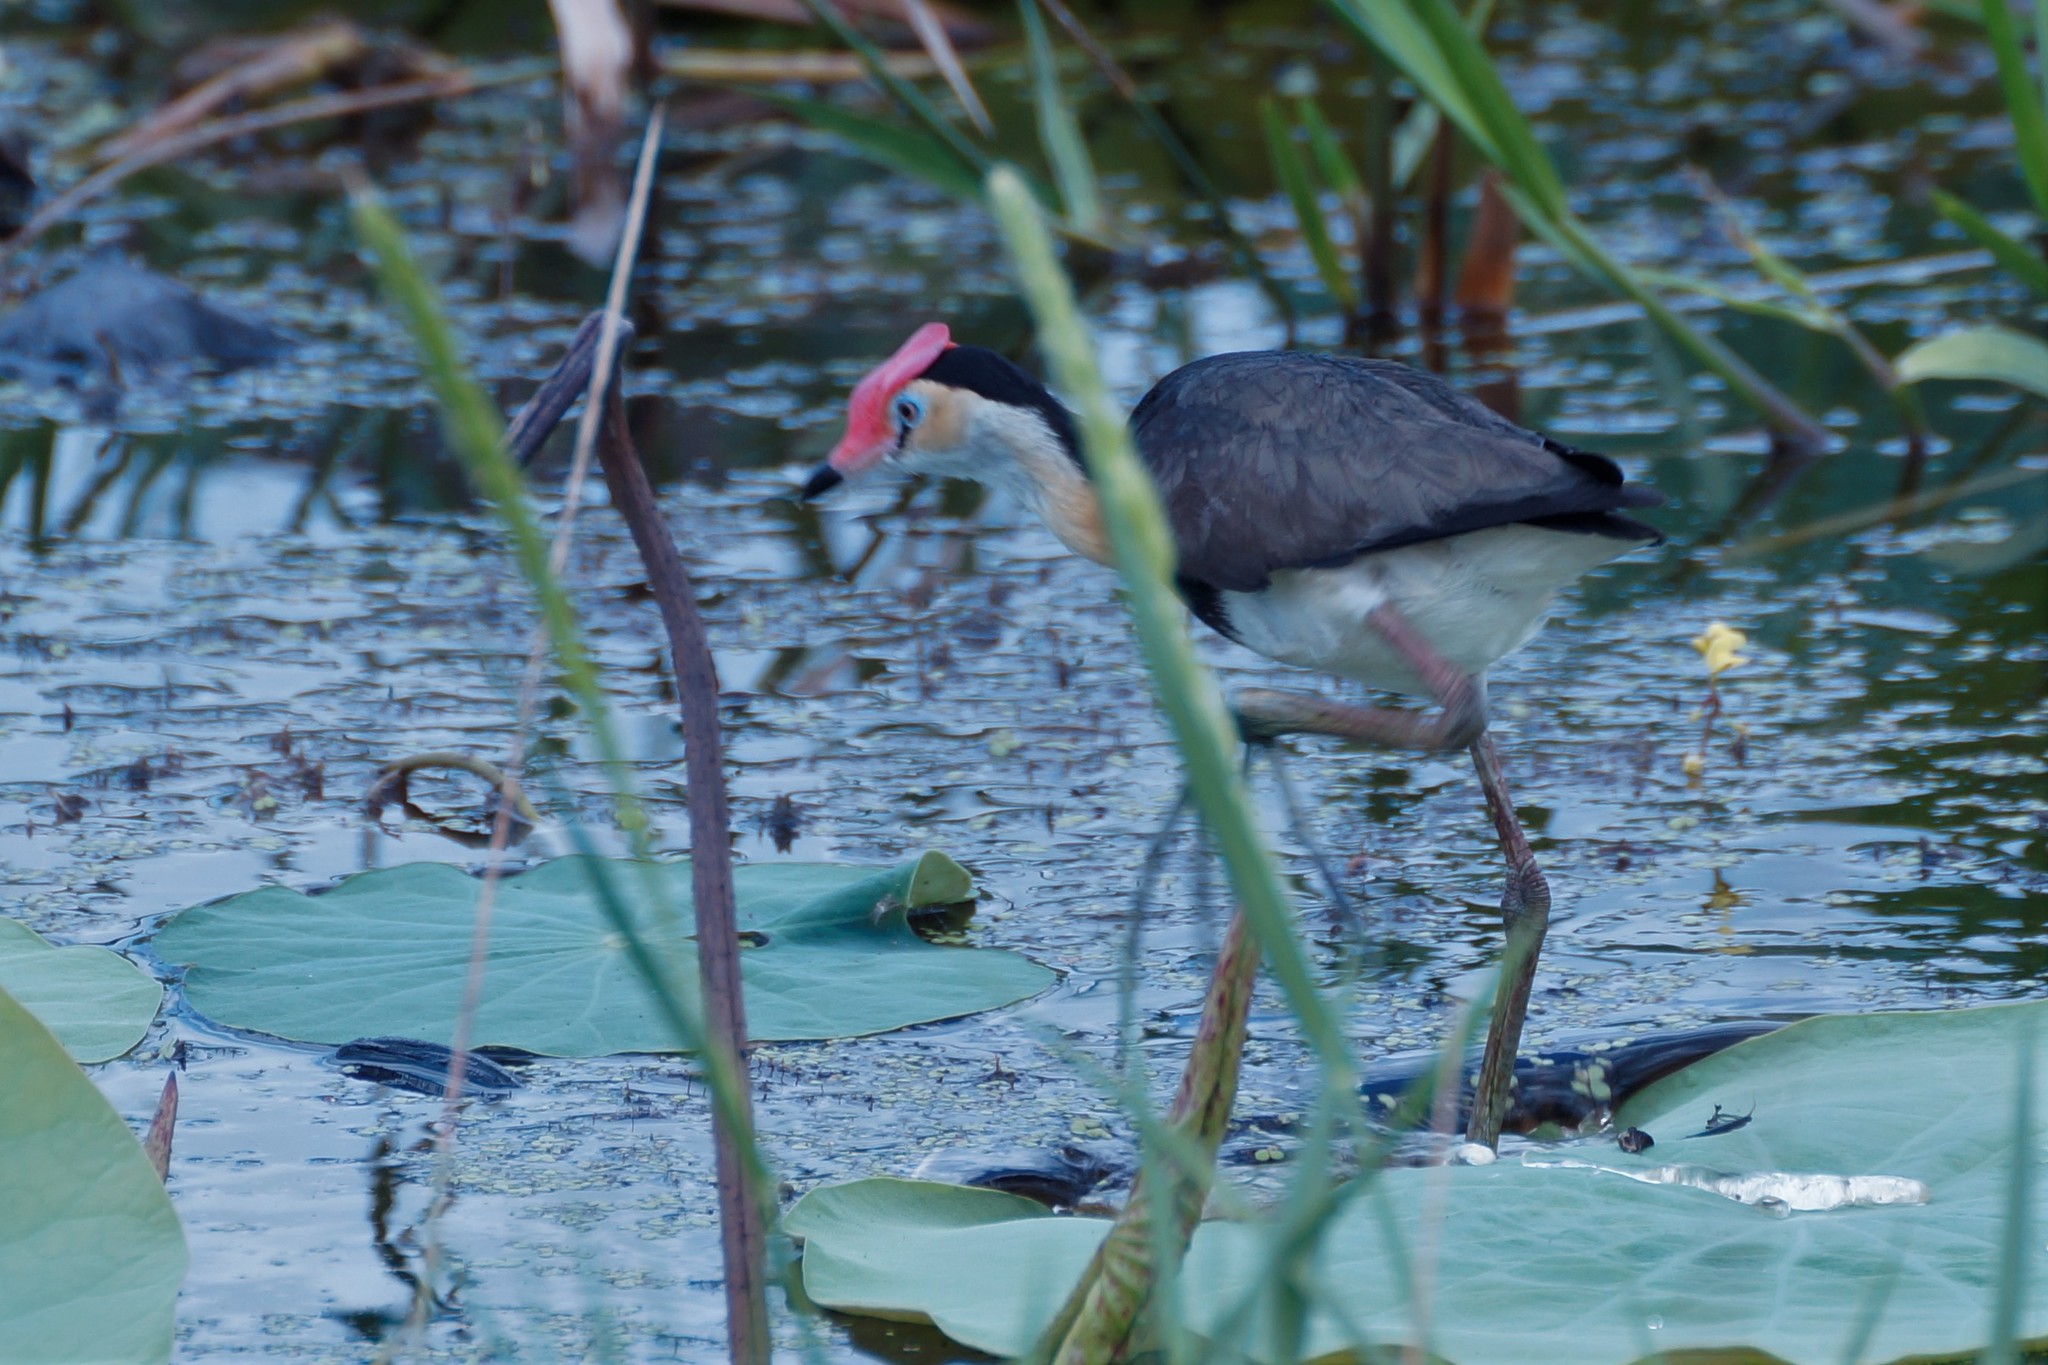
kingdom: Animalia
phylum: Chordata
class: Aves
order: Charadriiformes
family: Jacanidae
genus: Irediparra
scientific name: Irediparra gallinacea
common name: Comb-crested jacana
